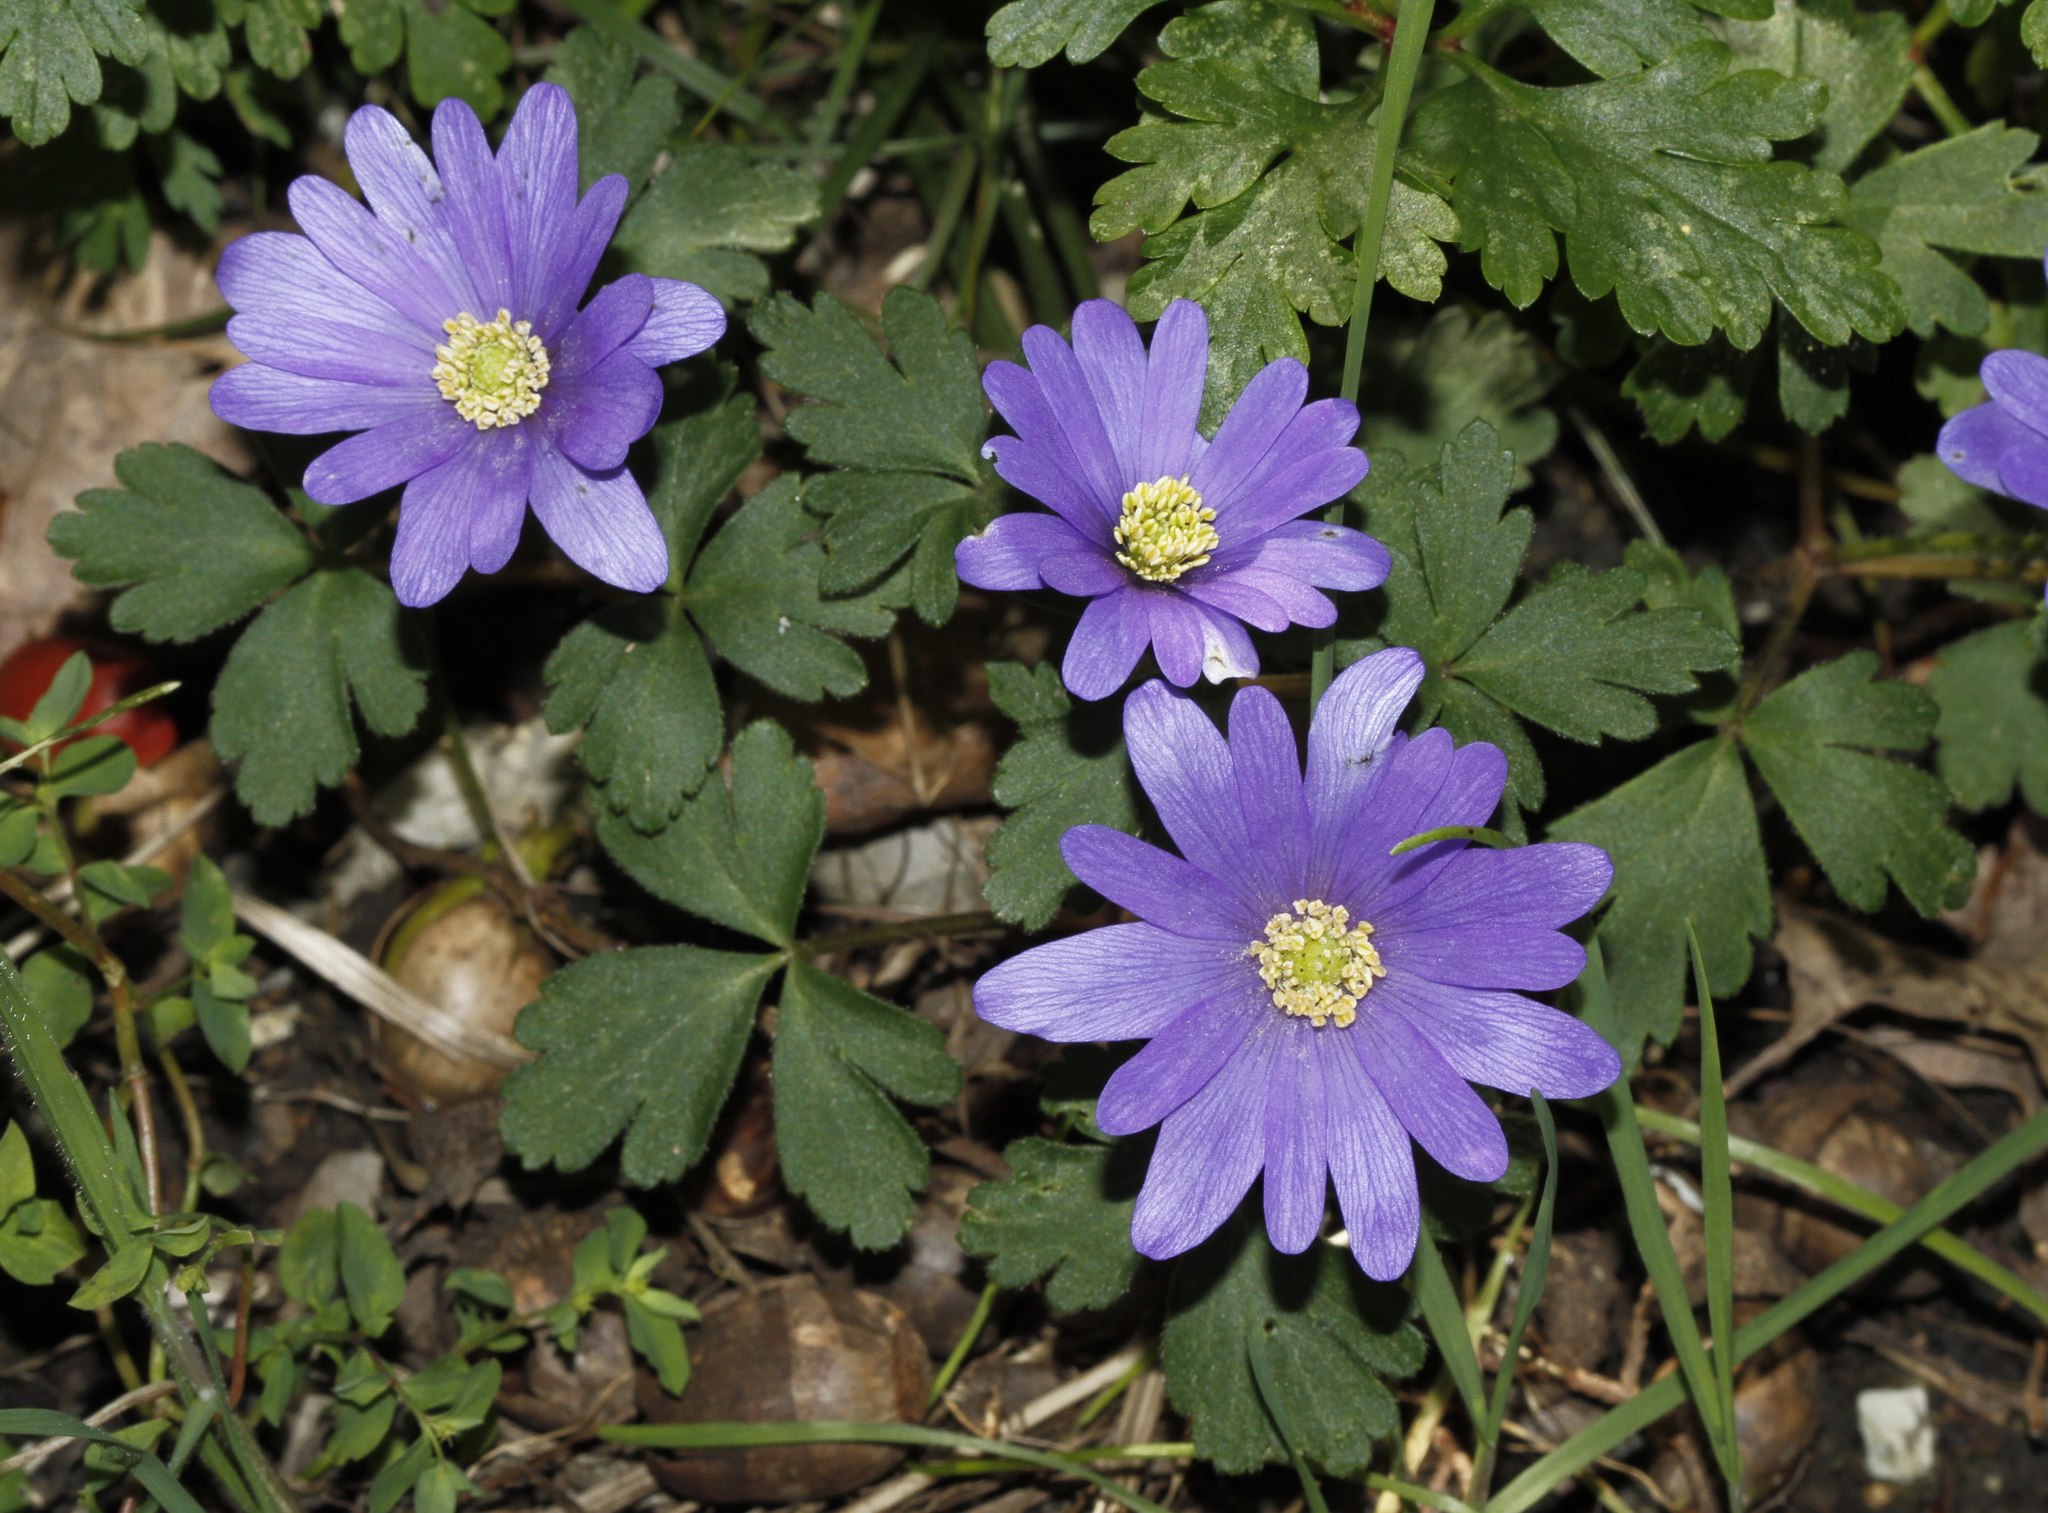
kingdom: Plantae
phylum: Tracheophyta
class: Magnoliopsida
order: Ranunculales
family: Ranunculaceae
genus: Anemone
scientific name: Anemone apennina
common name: Blue anemone
